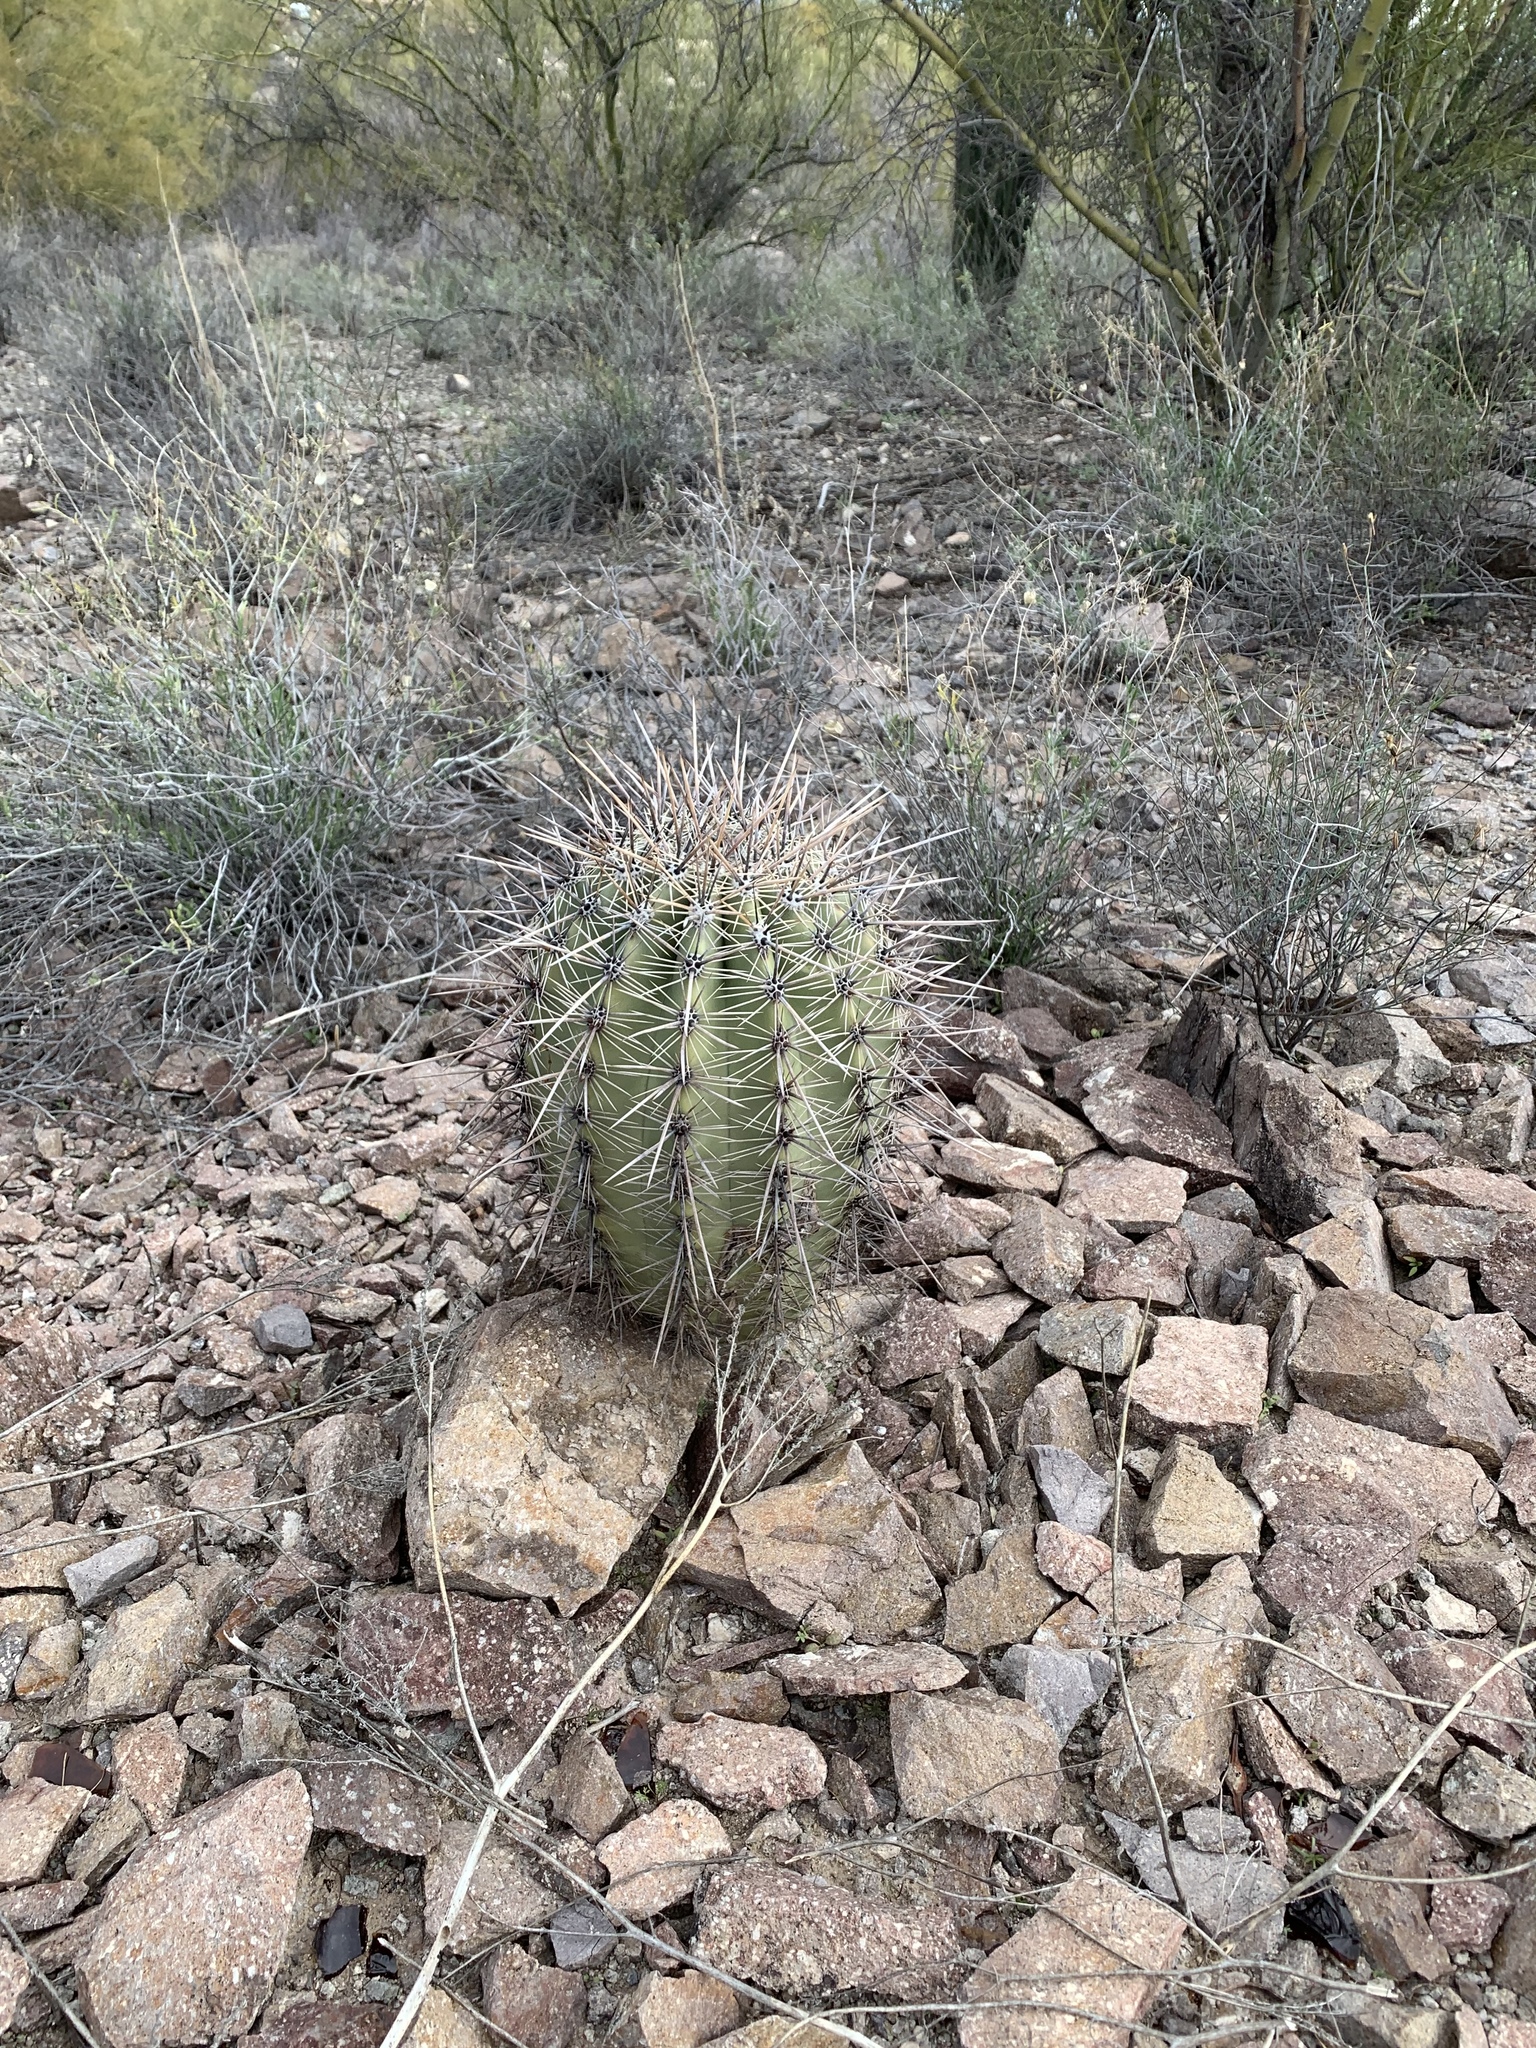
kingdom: Plantae
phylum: Tracheophyta
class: Magnoliopsida
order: Caryophyllales
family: Cactaceae
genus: Carnegiea
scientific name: Carnegiea gigantea
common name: Saguaro
